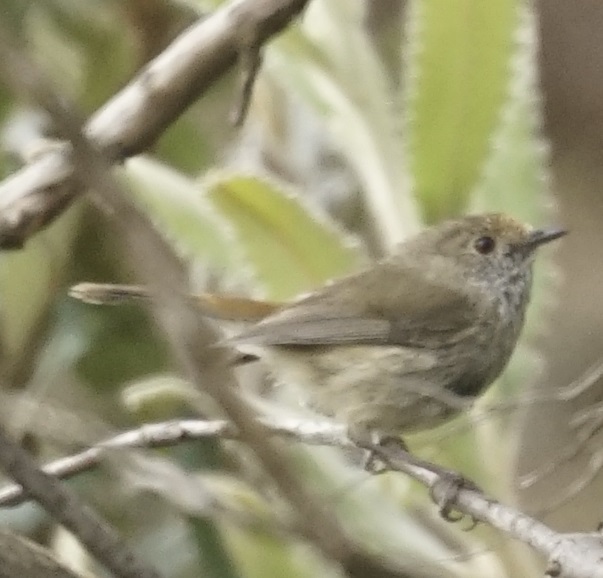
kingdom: Animalia
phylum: Chordata
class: Aves
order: Passeriformes
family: Acanthizidae
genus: Acanthiza
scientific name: Acanthiza pusilla
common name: Brown thornbill
